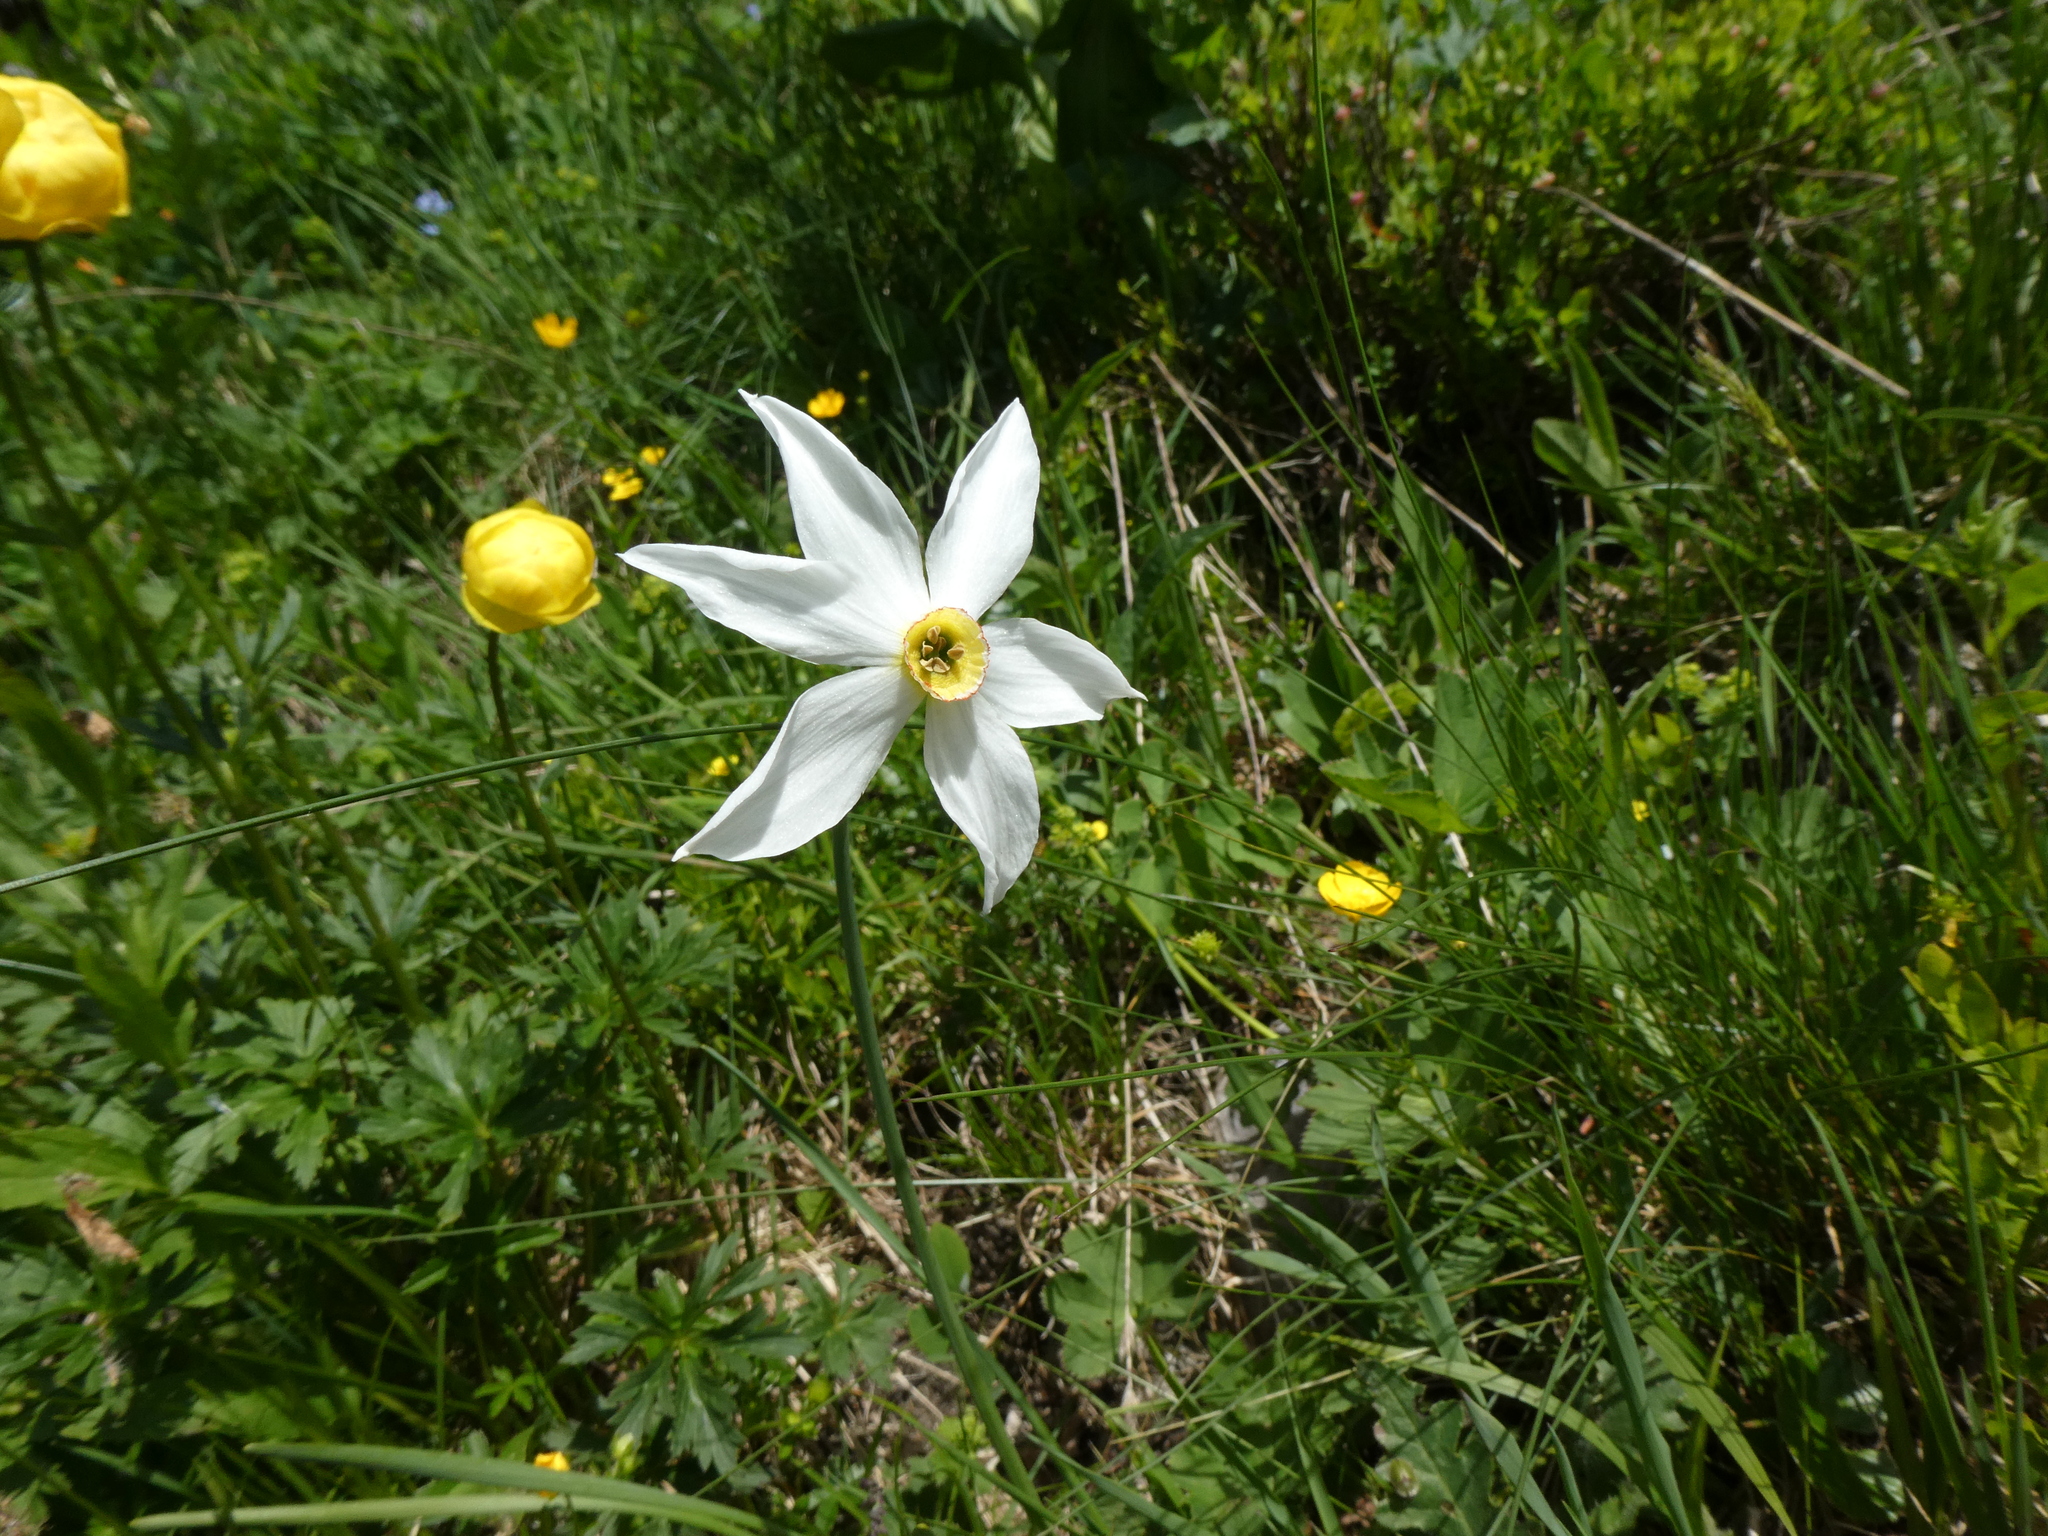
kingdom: Plantae
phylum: Tracheophyta
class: Liliopsida
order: Asparagales
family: Amaryllidaceae
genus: Narcissus
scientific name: Narcissus poeticus
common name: Pheasant's-eye daffodil
